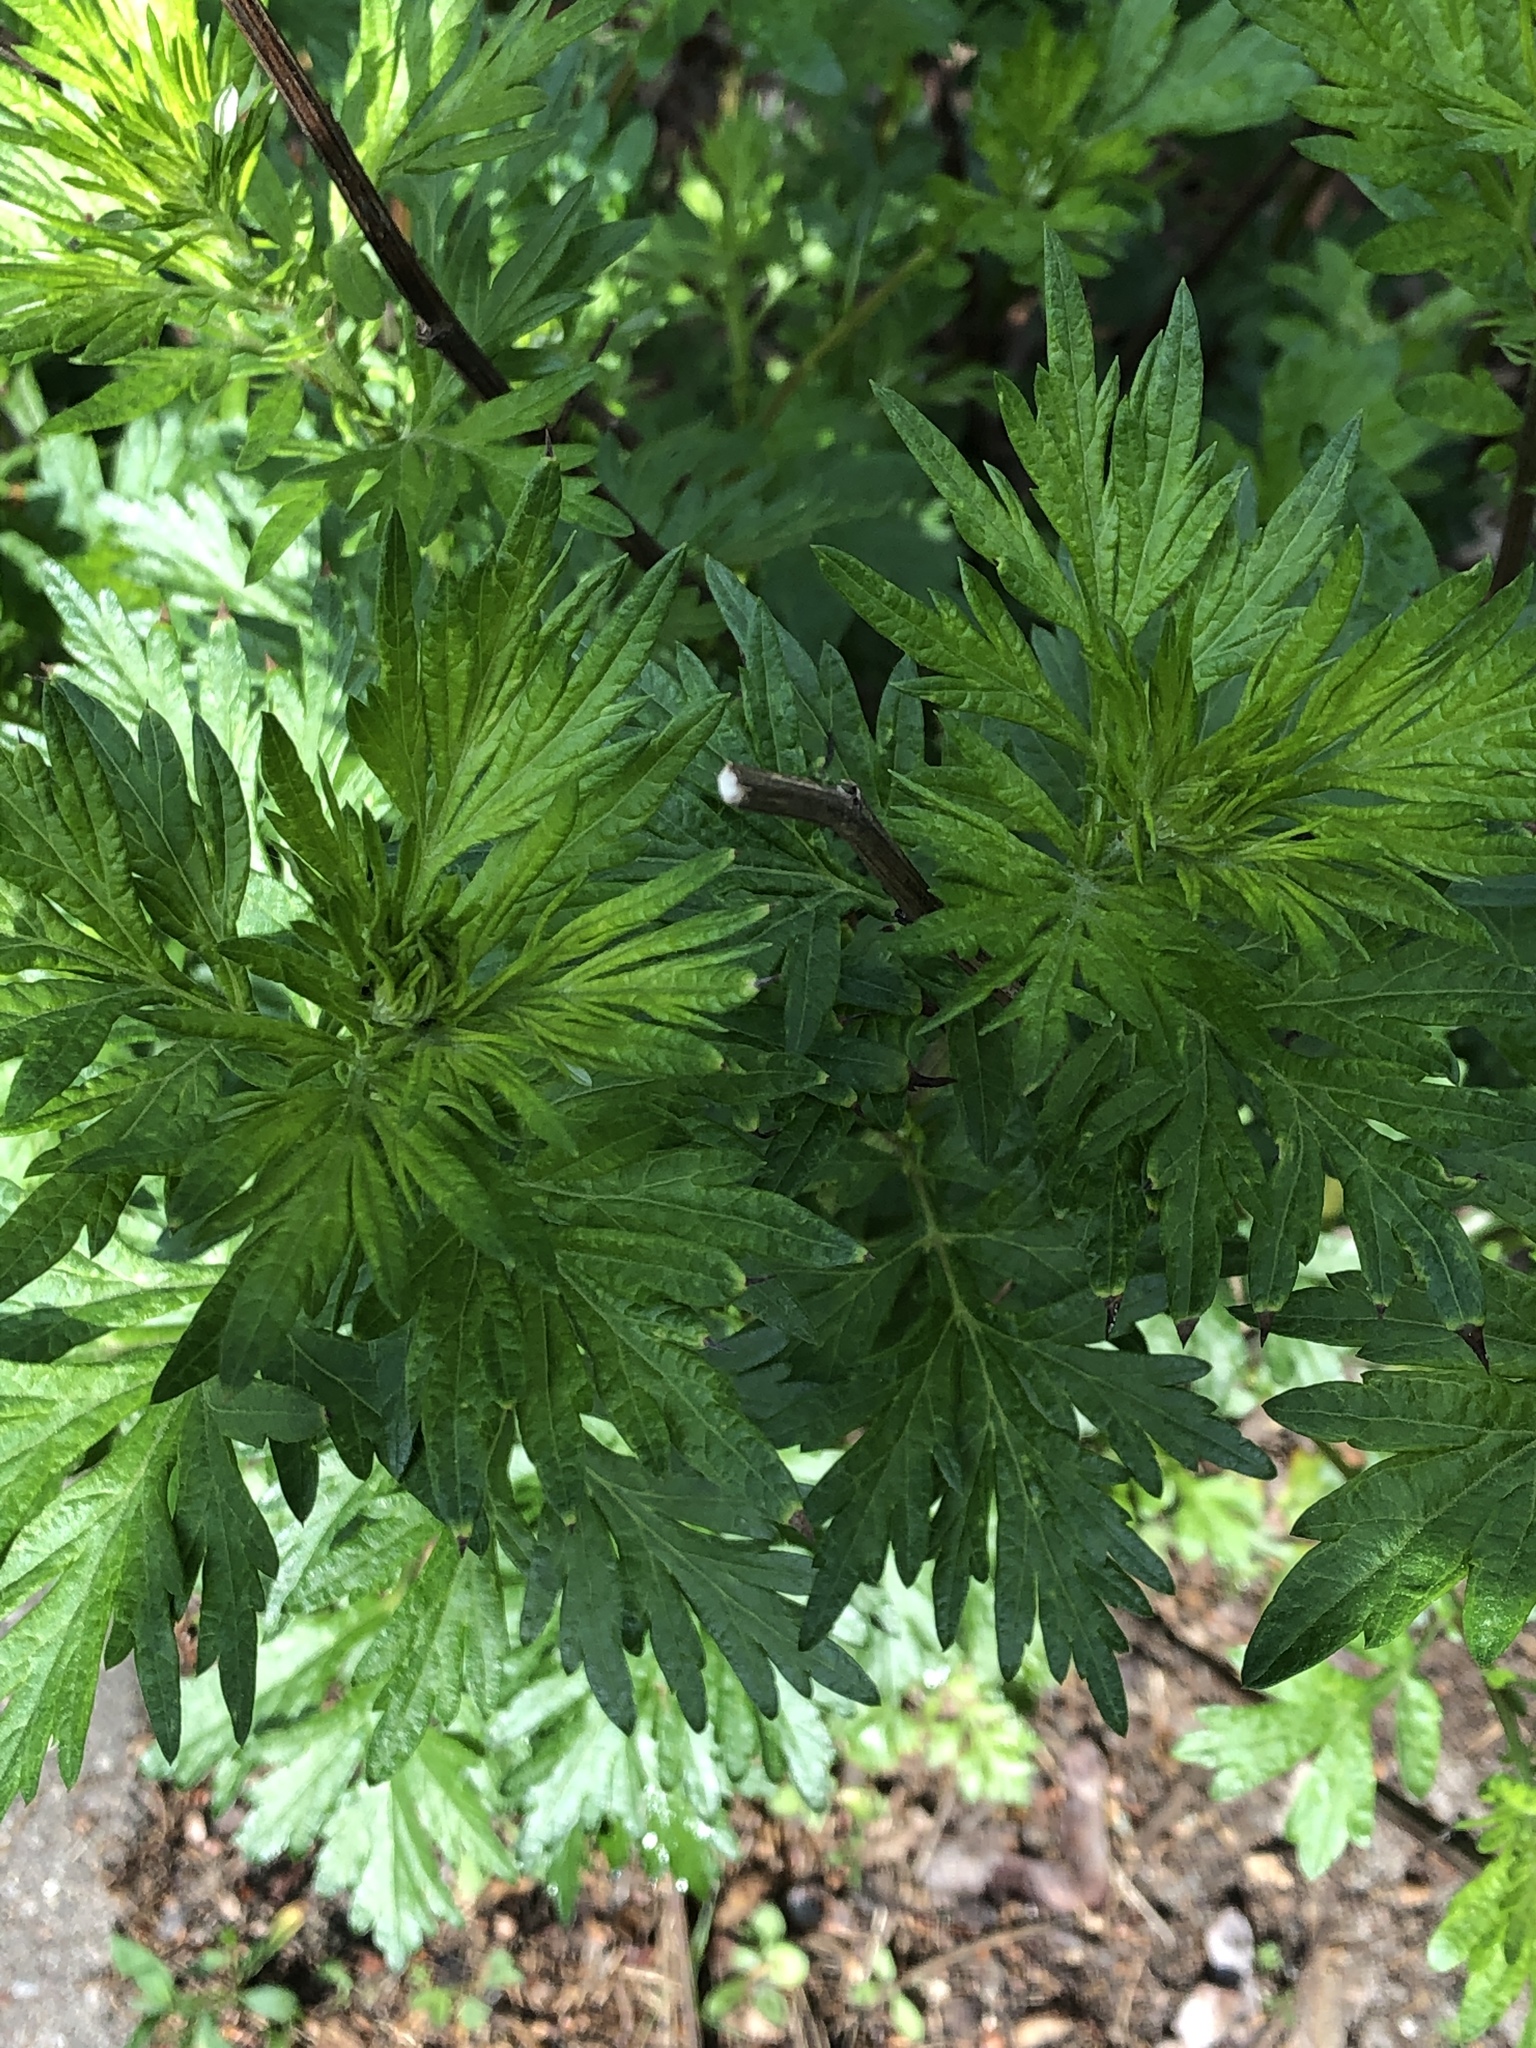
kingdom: Plantae
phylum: Tracheophyta
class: Magnoliopsida
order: Asterales
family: Asteraceae
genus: Artemisia
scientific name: Artemisia vulgaris
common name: Mugwort
